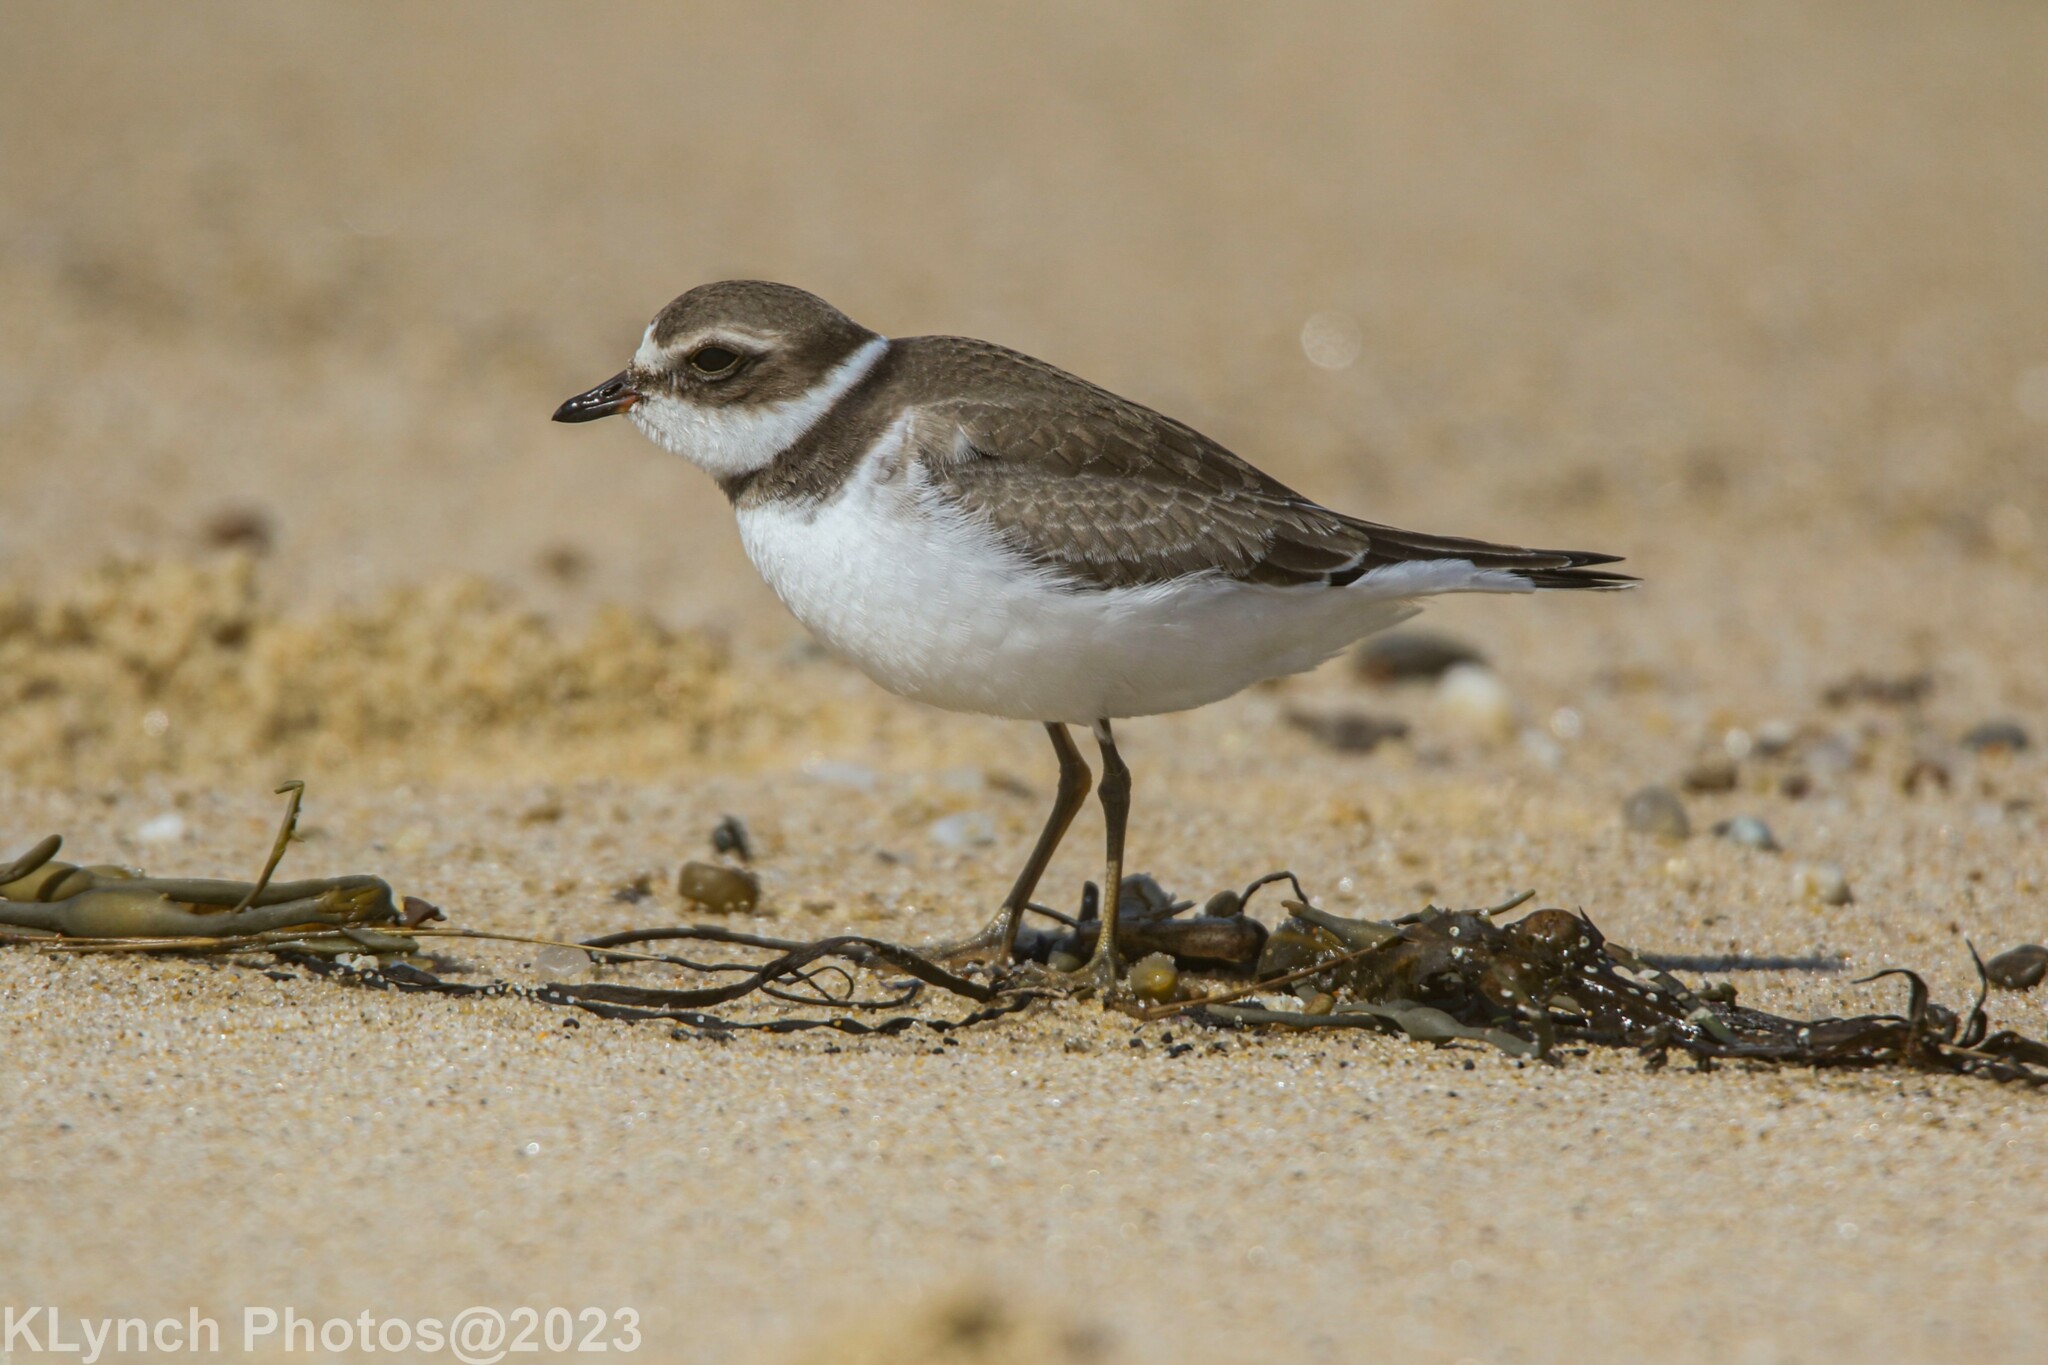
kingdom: Animalia
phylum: Chordata
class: Aves
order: Charadriiformes
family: Charadriidae
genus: Charadrius
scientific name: Charadrius semipalmatus
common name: Semipalmated plover
